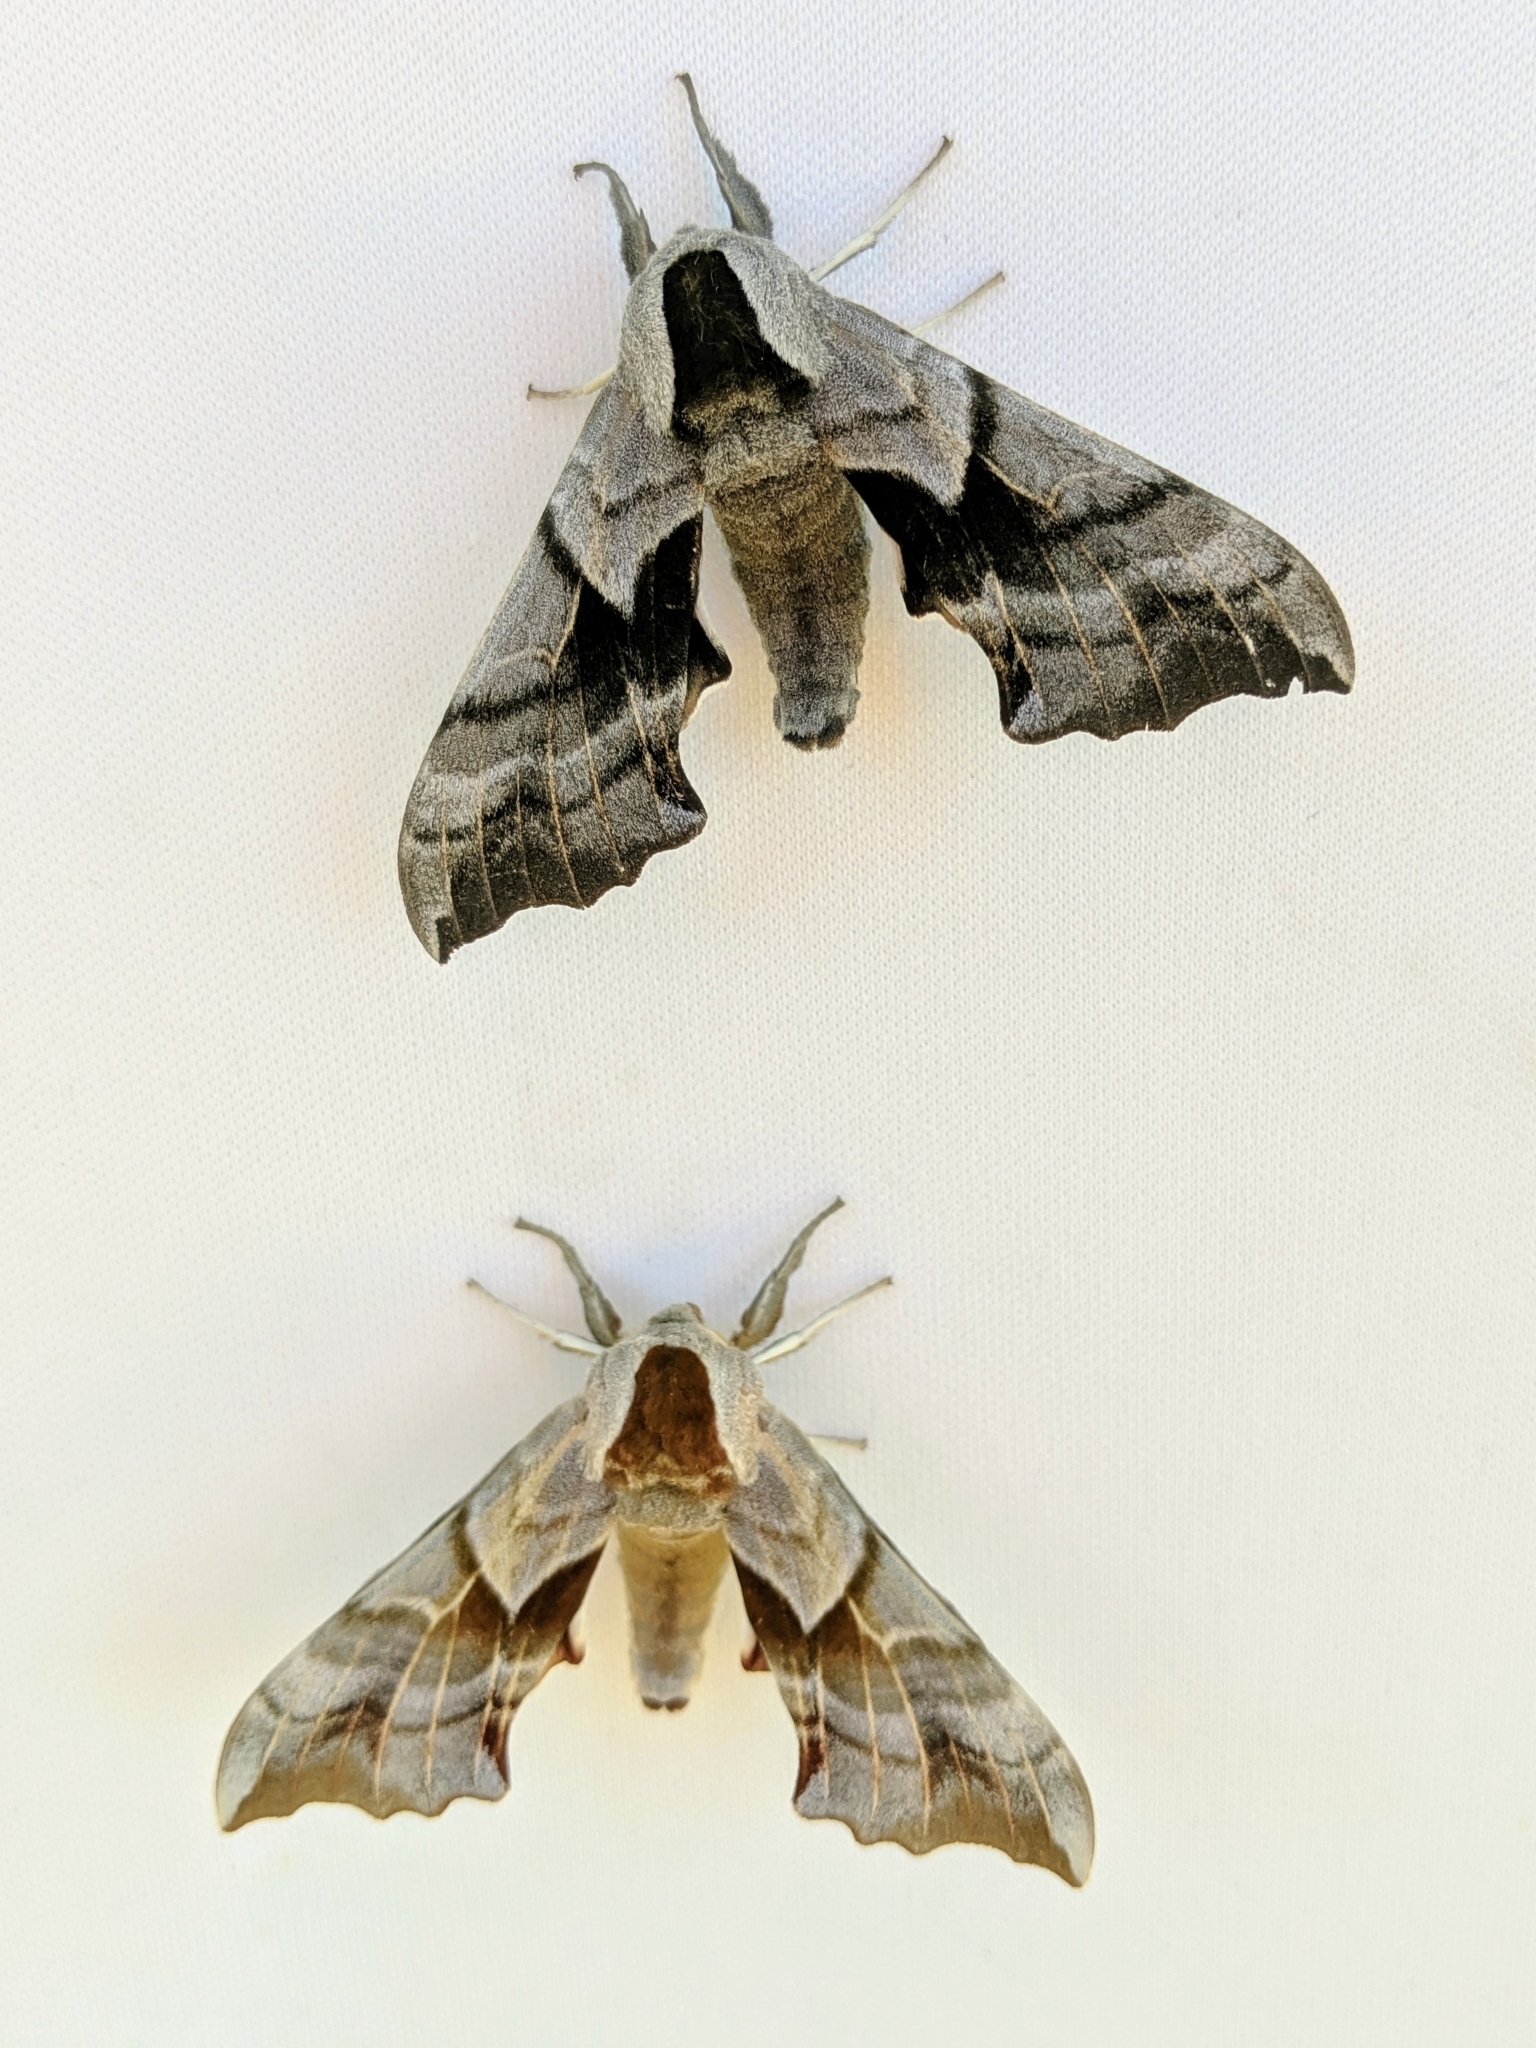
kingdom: Animalia
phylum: Arthropoda
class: Insecta
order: Lepidoptera
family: Sphingidae
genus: Smerinthus
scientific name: Smerinthus cerisyi
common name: Cerisy's sphinx moth
